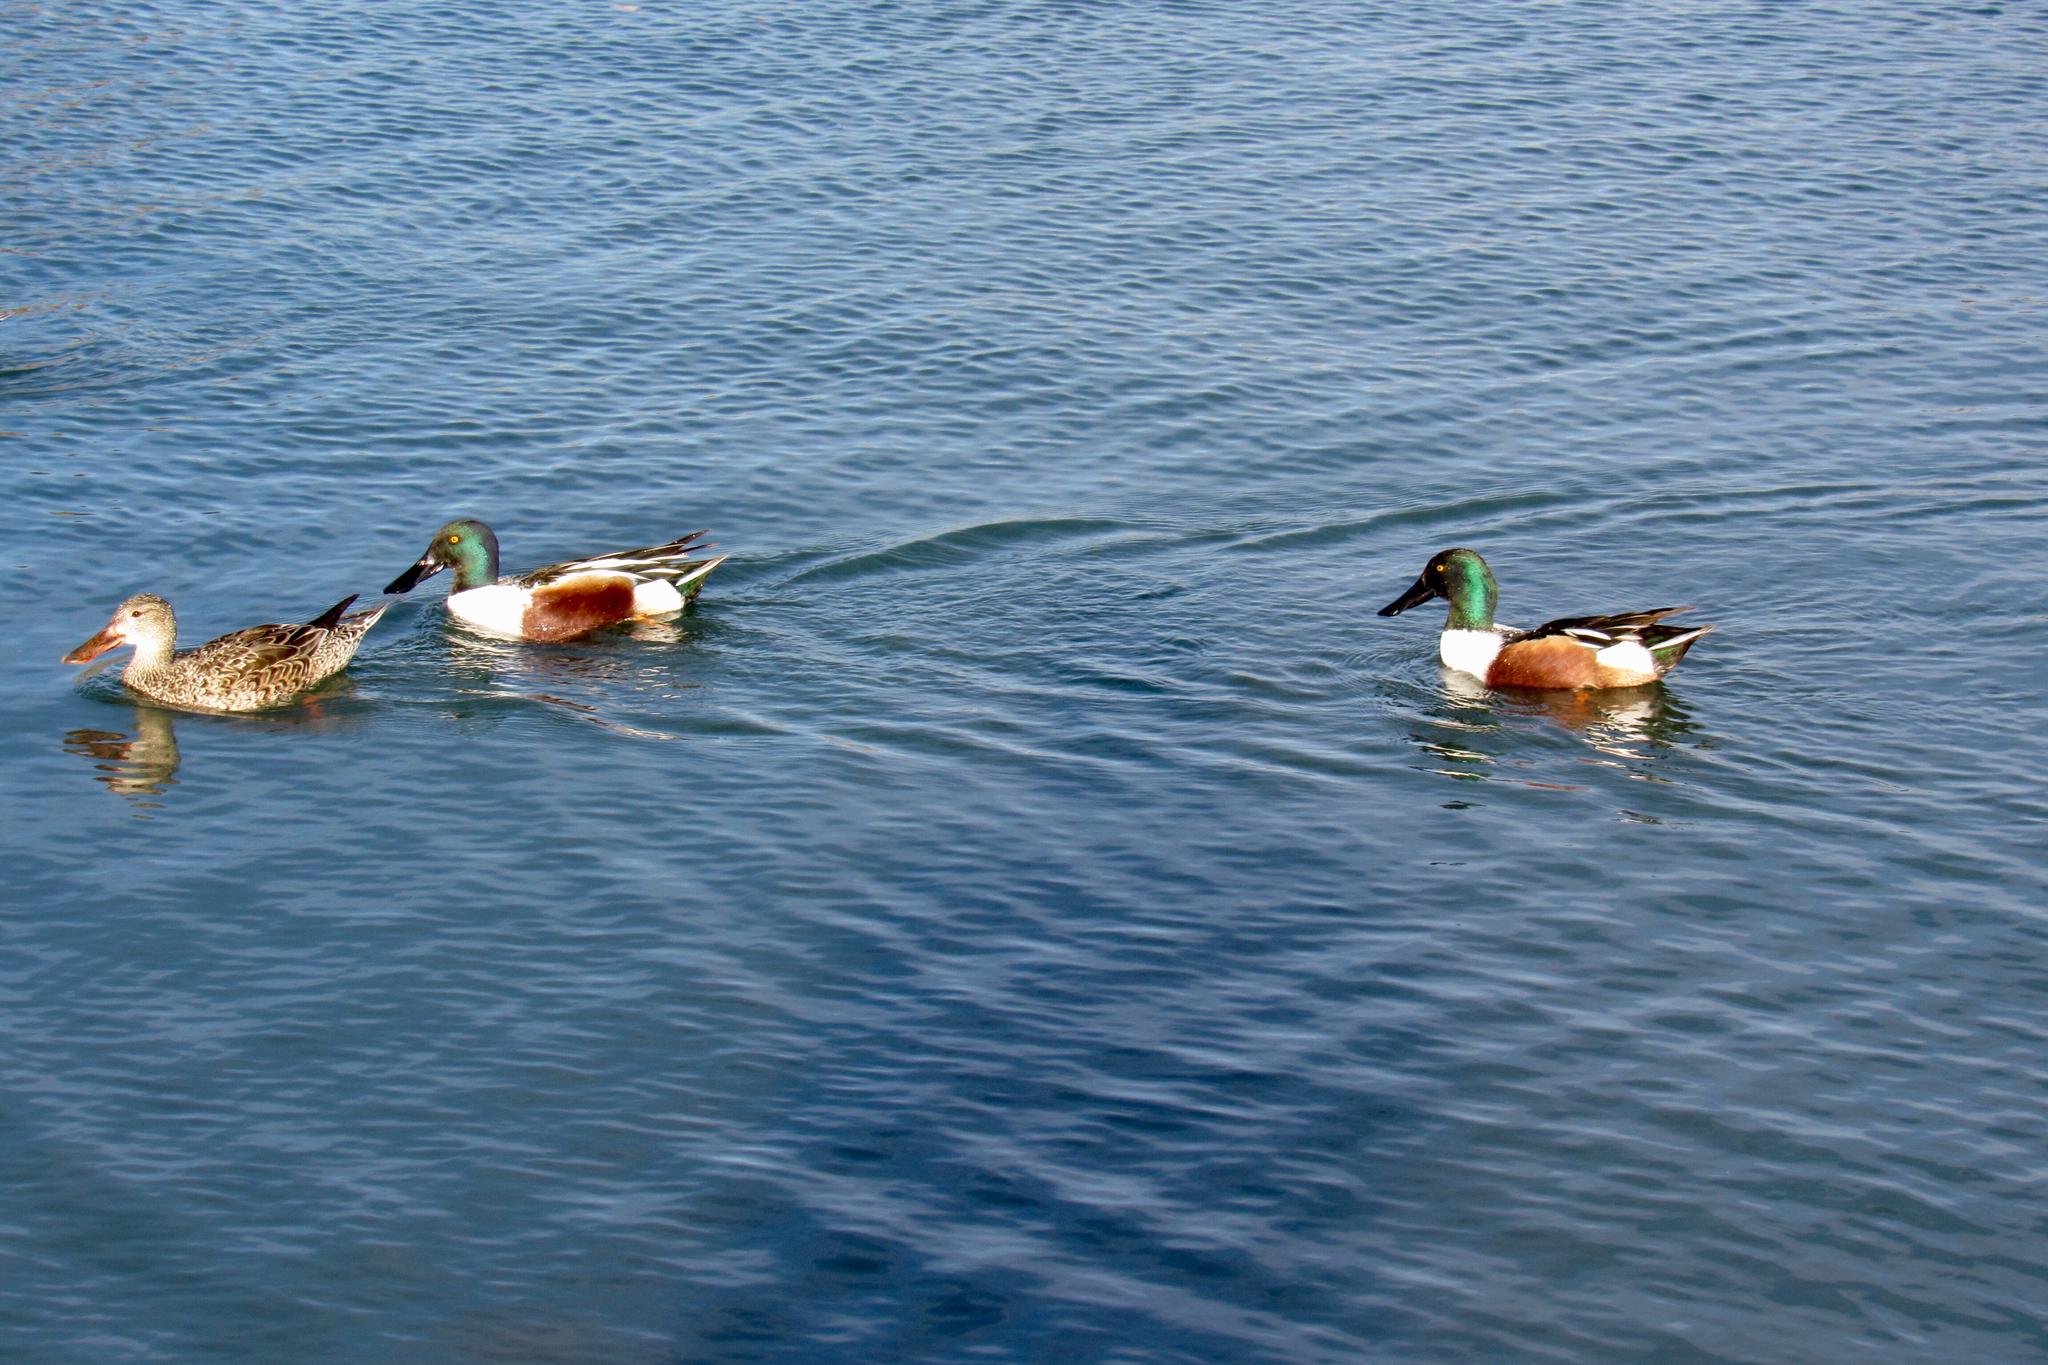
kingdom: Animalia
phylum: Chordata
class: Aves
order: Anseriformes
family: Anatidae
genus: Spatula
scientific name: Spatula clypeata
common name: Northern shoveler
